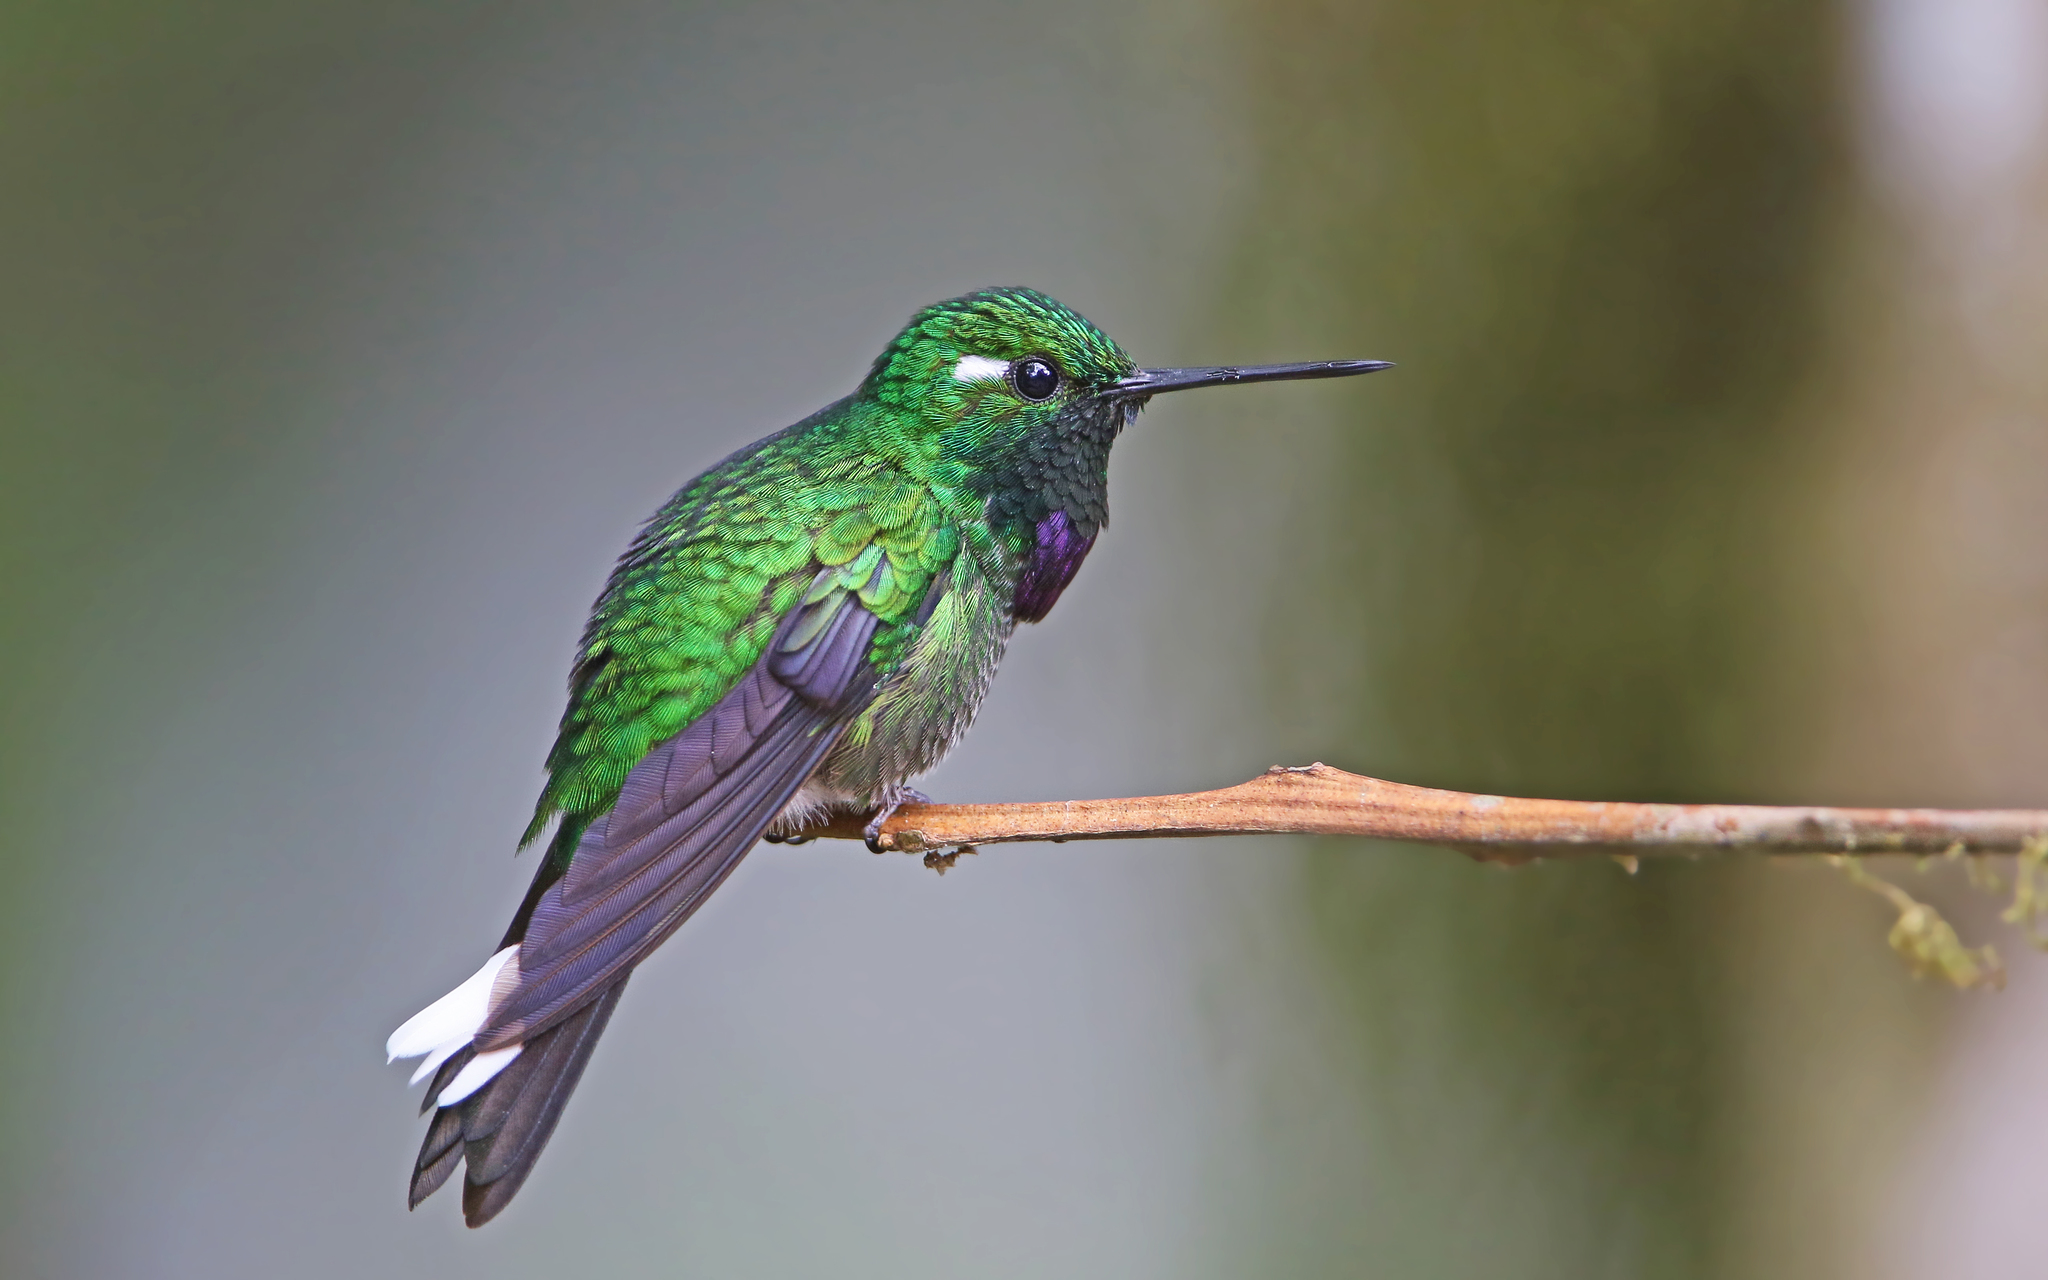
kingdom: Animalia
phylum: Chordata
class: Aves
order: Apodiformes
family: Trochilidae
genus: Urosticte
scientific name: Urosticte benjamini
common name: Purple-bibbed whitetip
